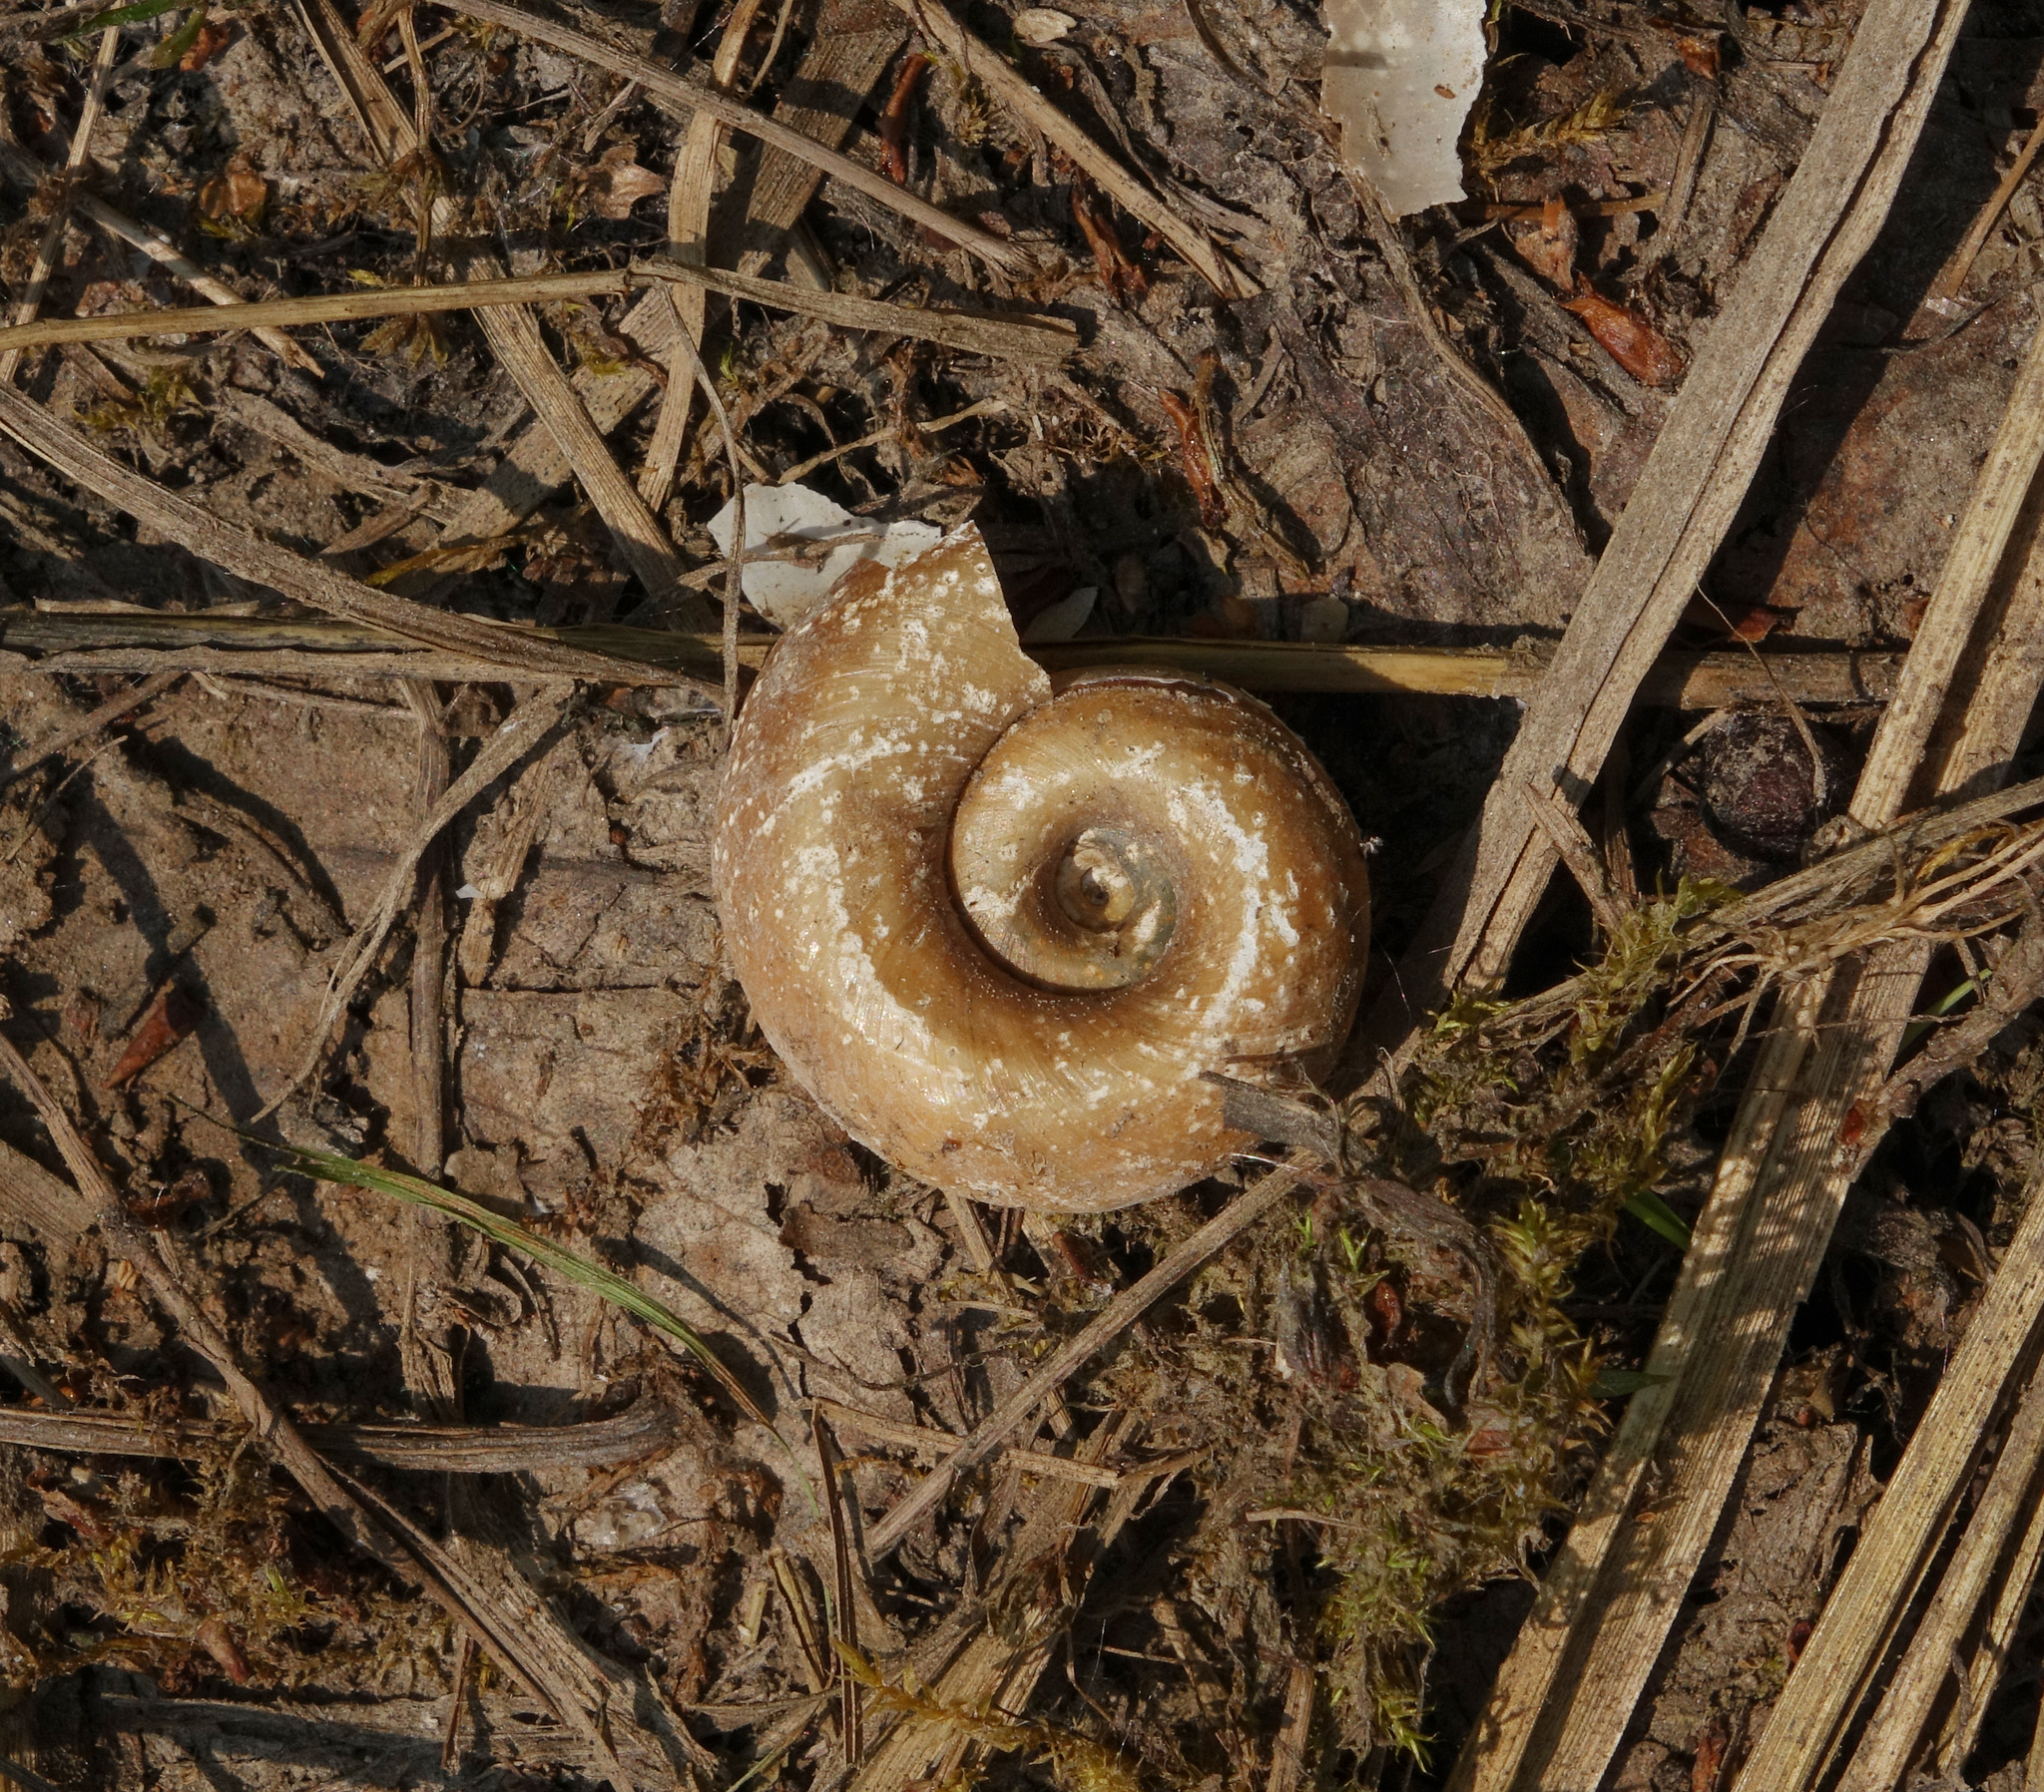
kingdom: Animalia
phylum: Mollusca
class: Gastropoda
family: Planorbidae
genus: Planorbarius
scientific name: Planorbarius corneus
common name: Great ramshorn
